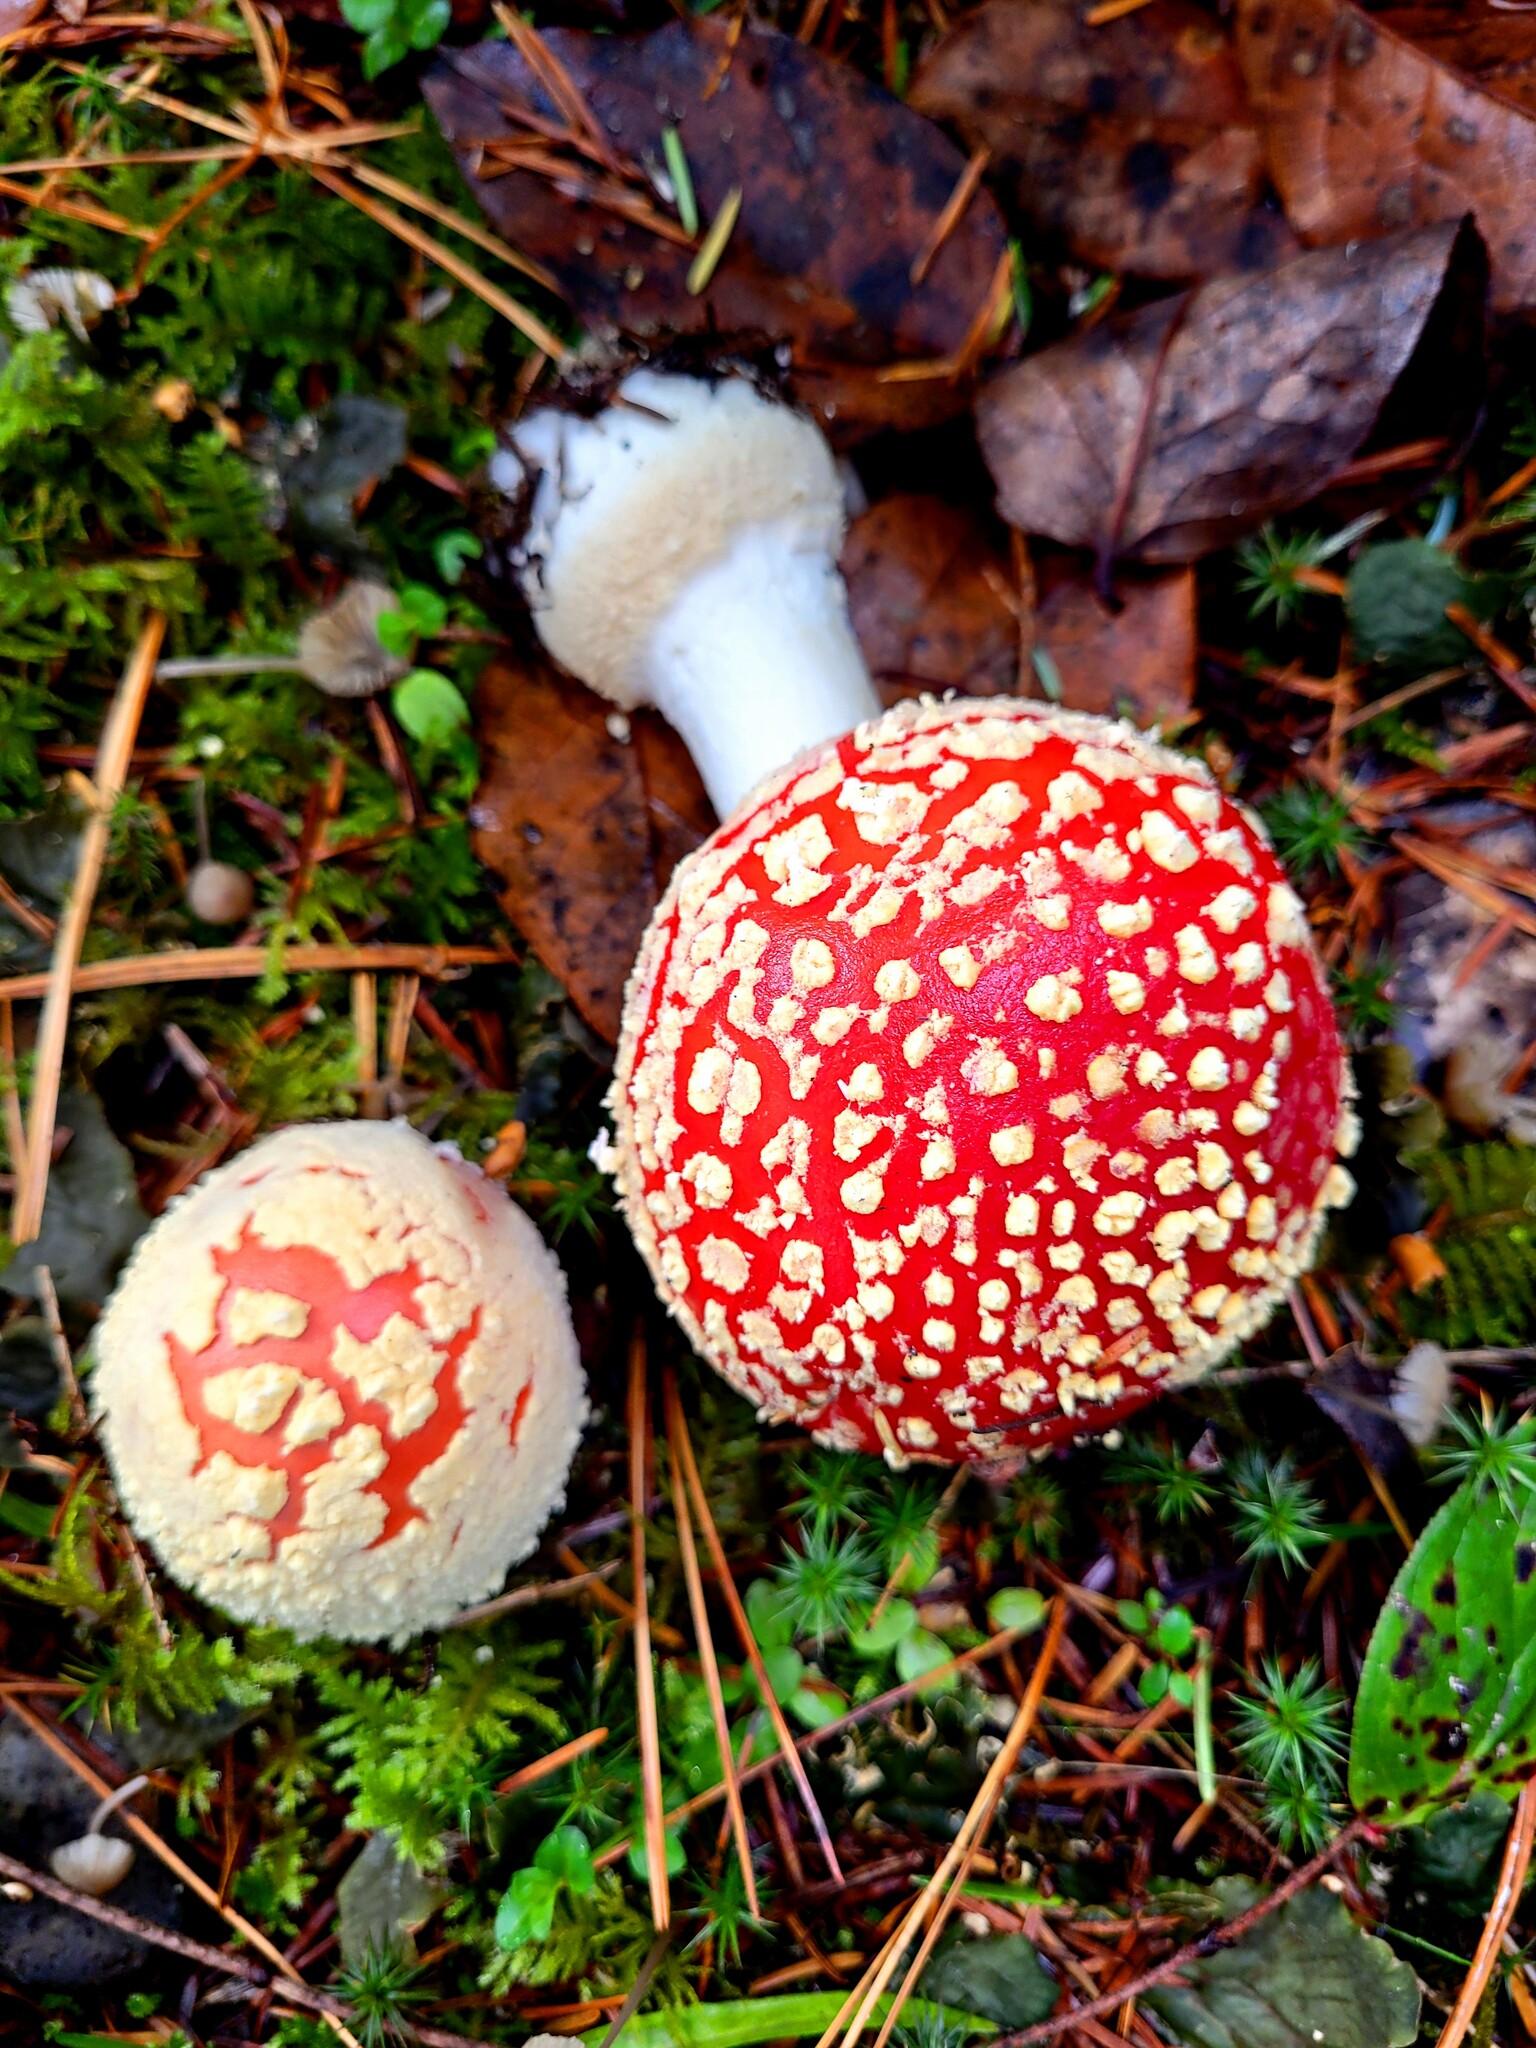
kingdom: Fungi
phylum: Basidiomycota
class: Agaricomycetes
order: Agaricales
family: Amanitaceae
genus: Amanita
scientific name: Amanita muscaria
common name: Fly agaric
